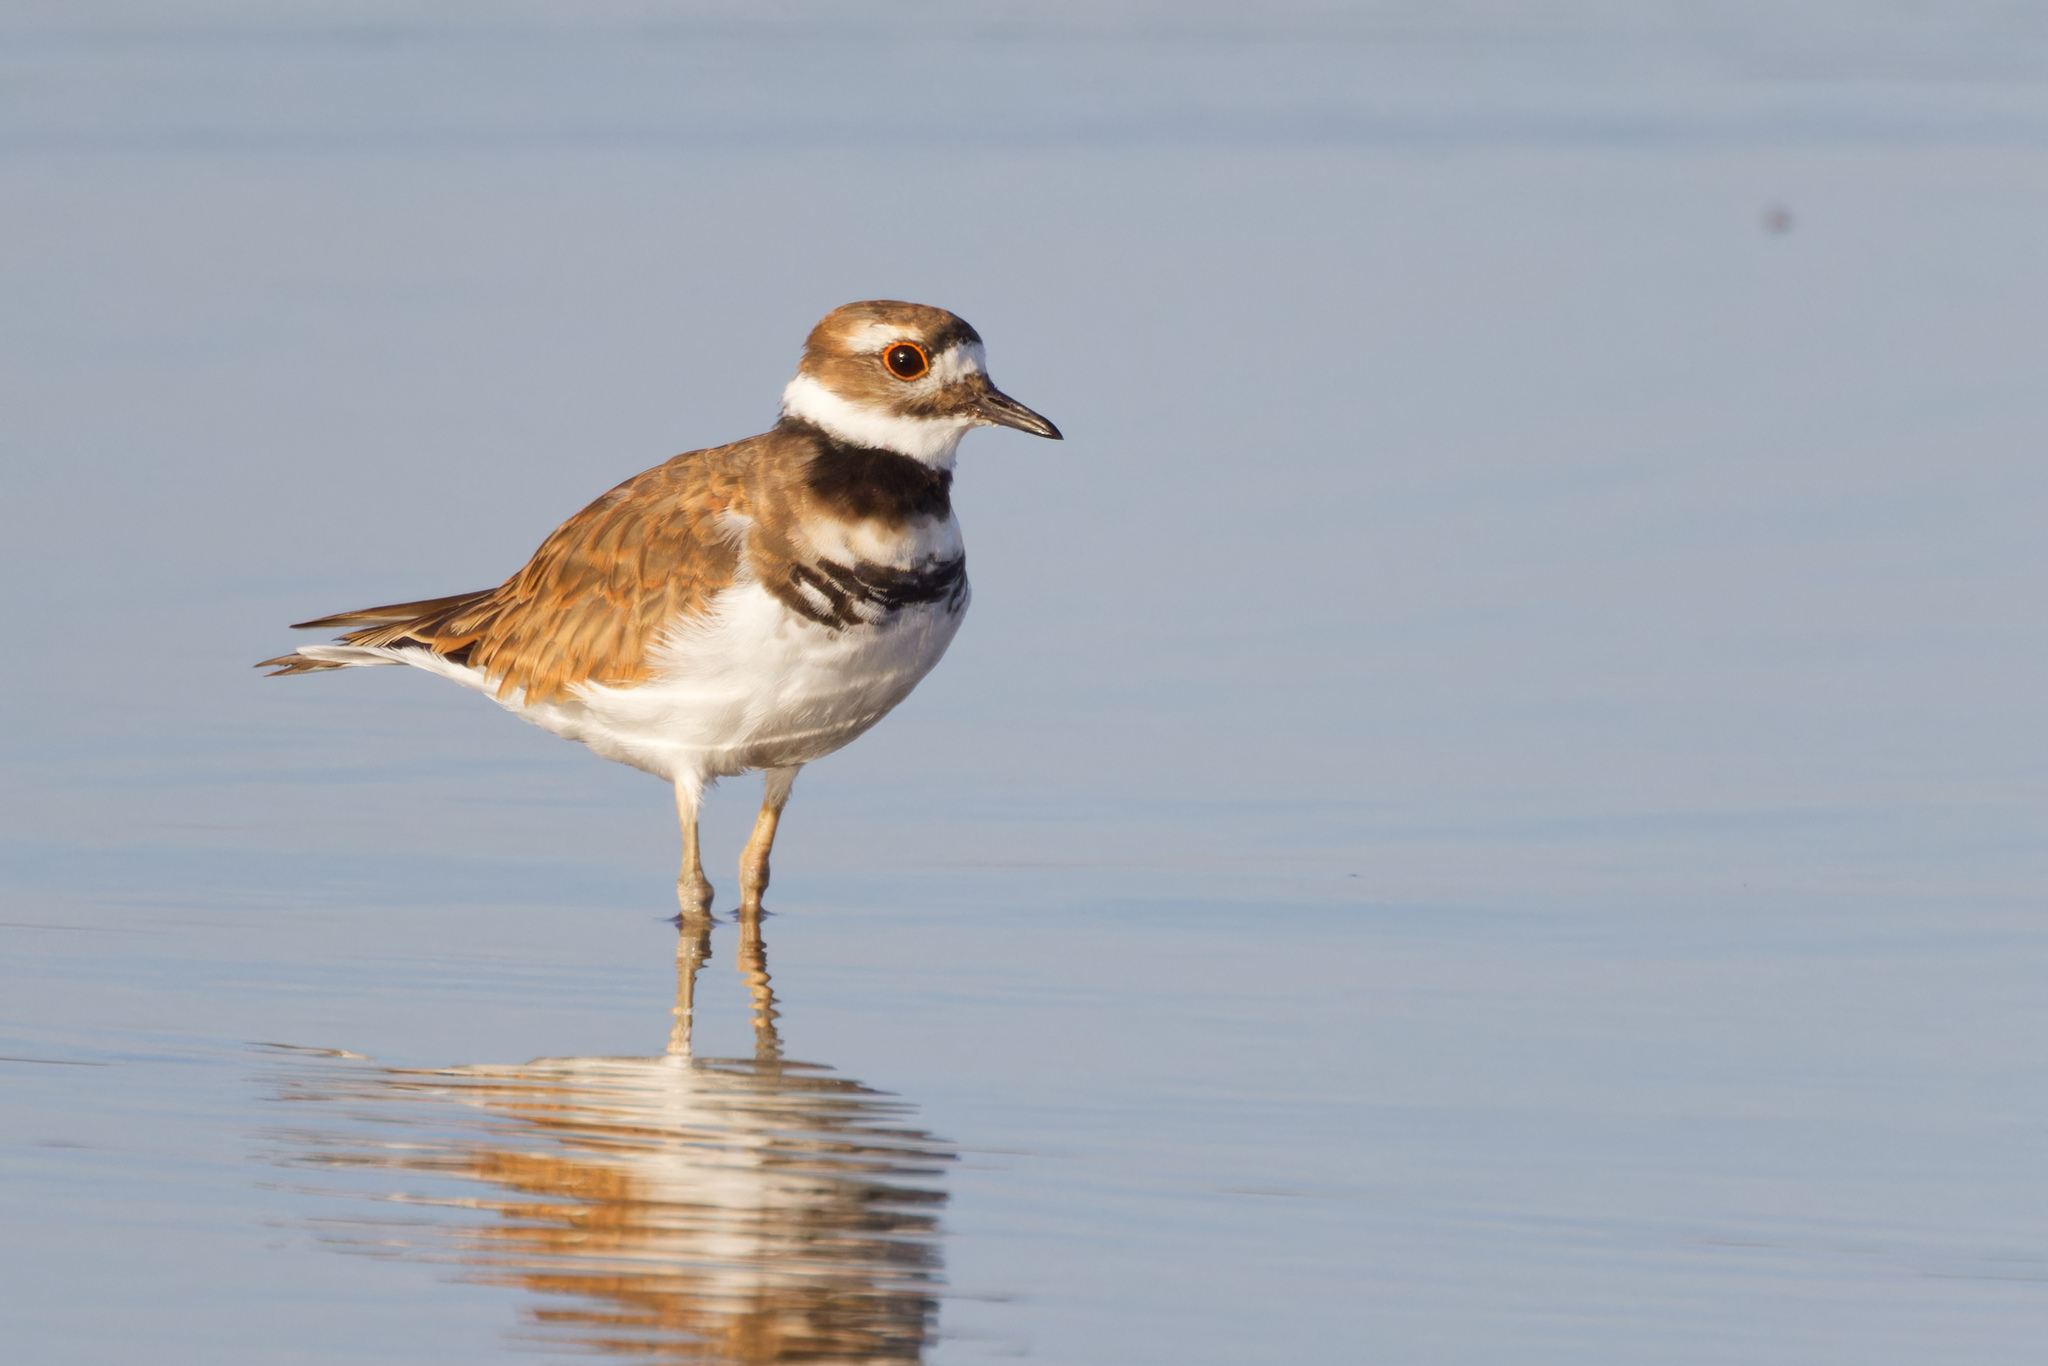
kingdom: Animalia
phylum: Chordata
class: Aves
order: Charadriiformes
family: Charadriidae
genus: Charadrius
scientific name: Charadrius vociferus
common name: Killdeer
